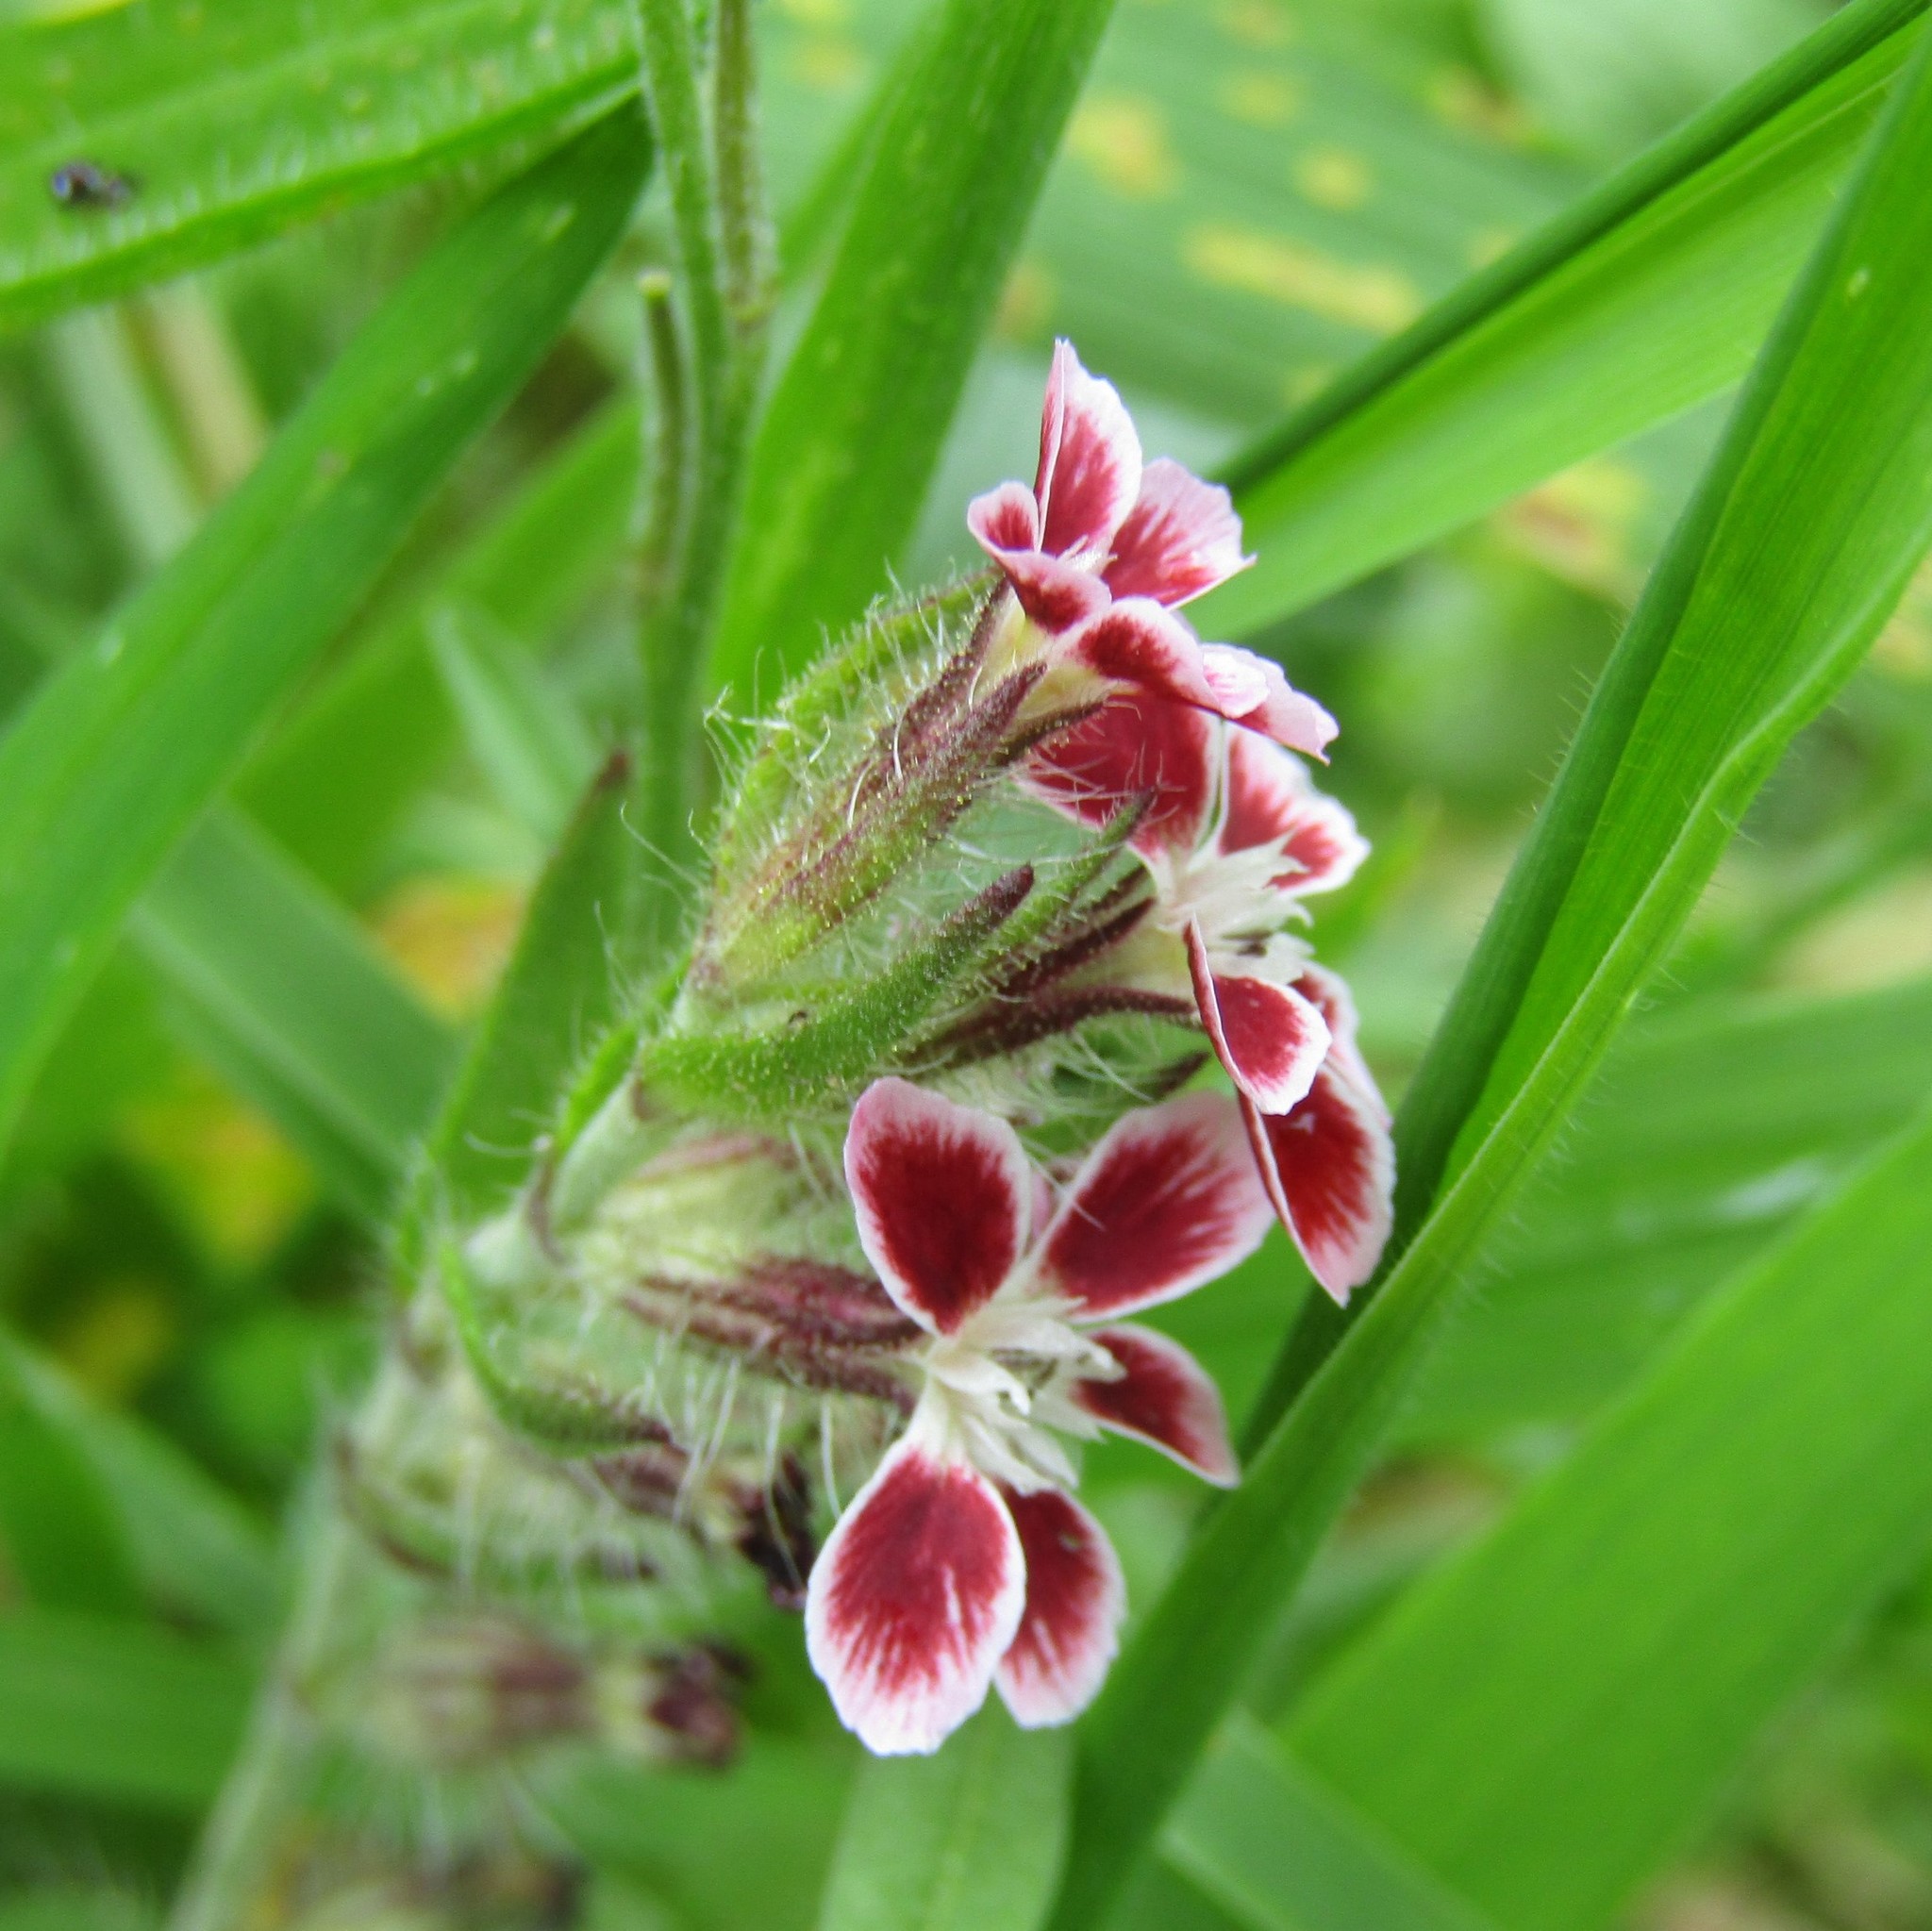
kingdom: Plantae
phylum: Tracheophyta
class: Magnoliopsida
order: Caryophyllales
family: Caryophyllaceae
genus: Silene
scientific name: Silene gallica
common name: Small-flowered catchfly
